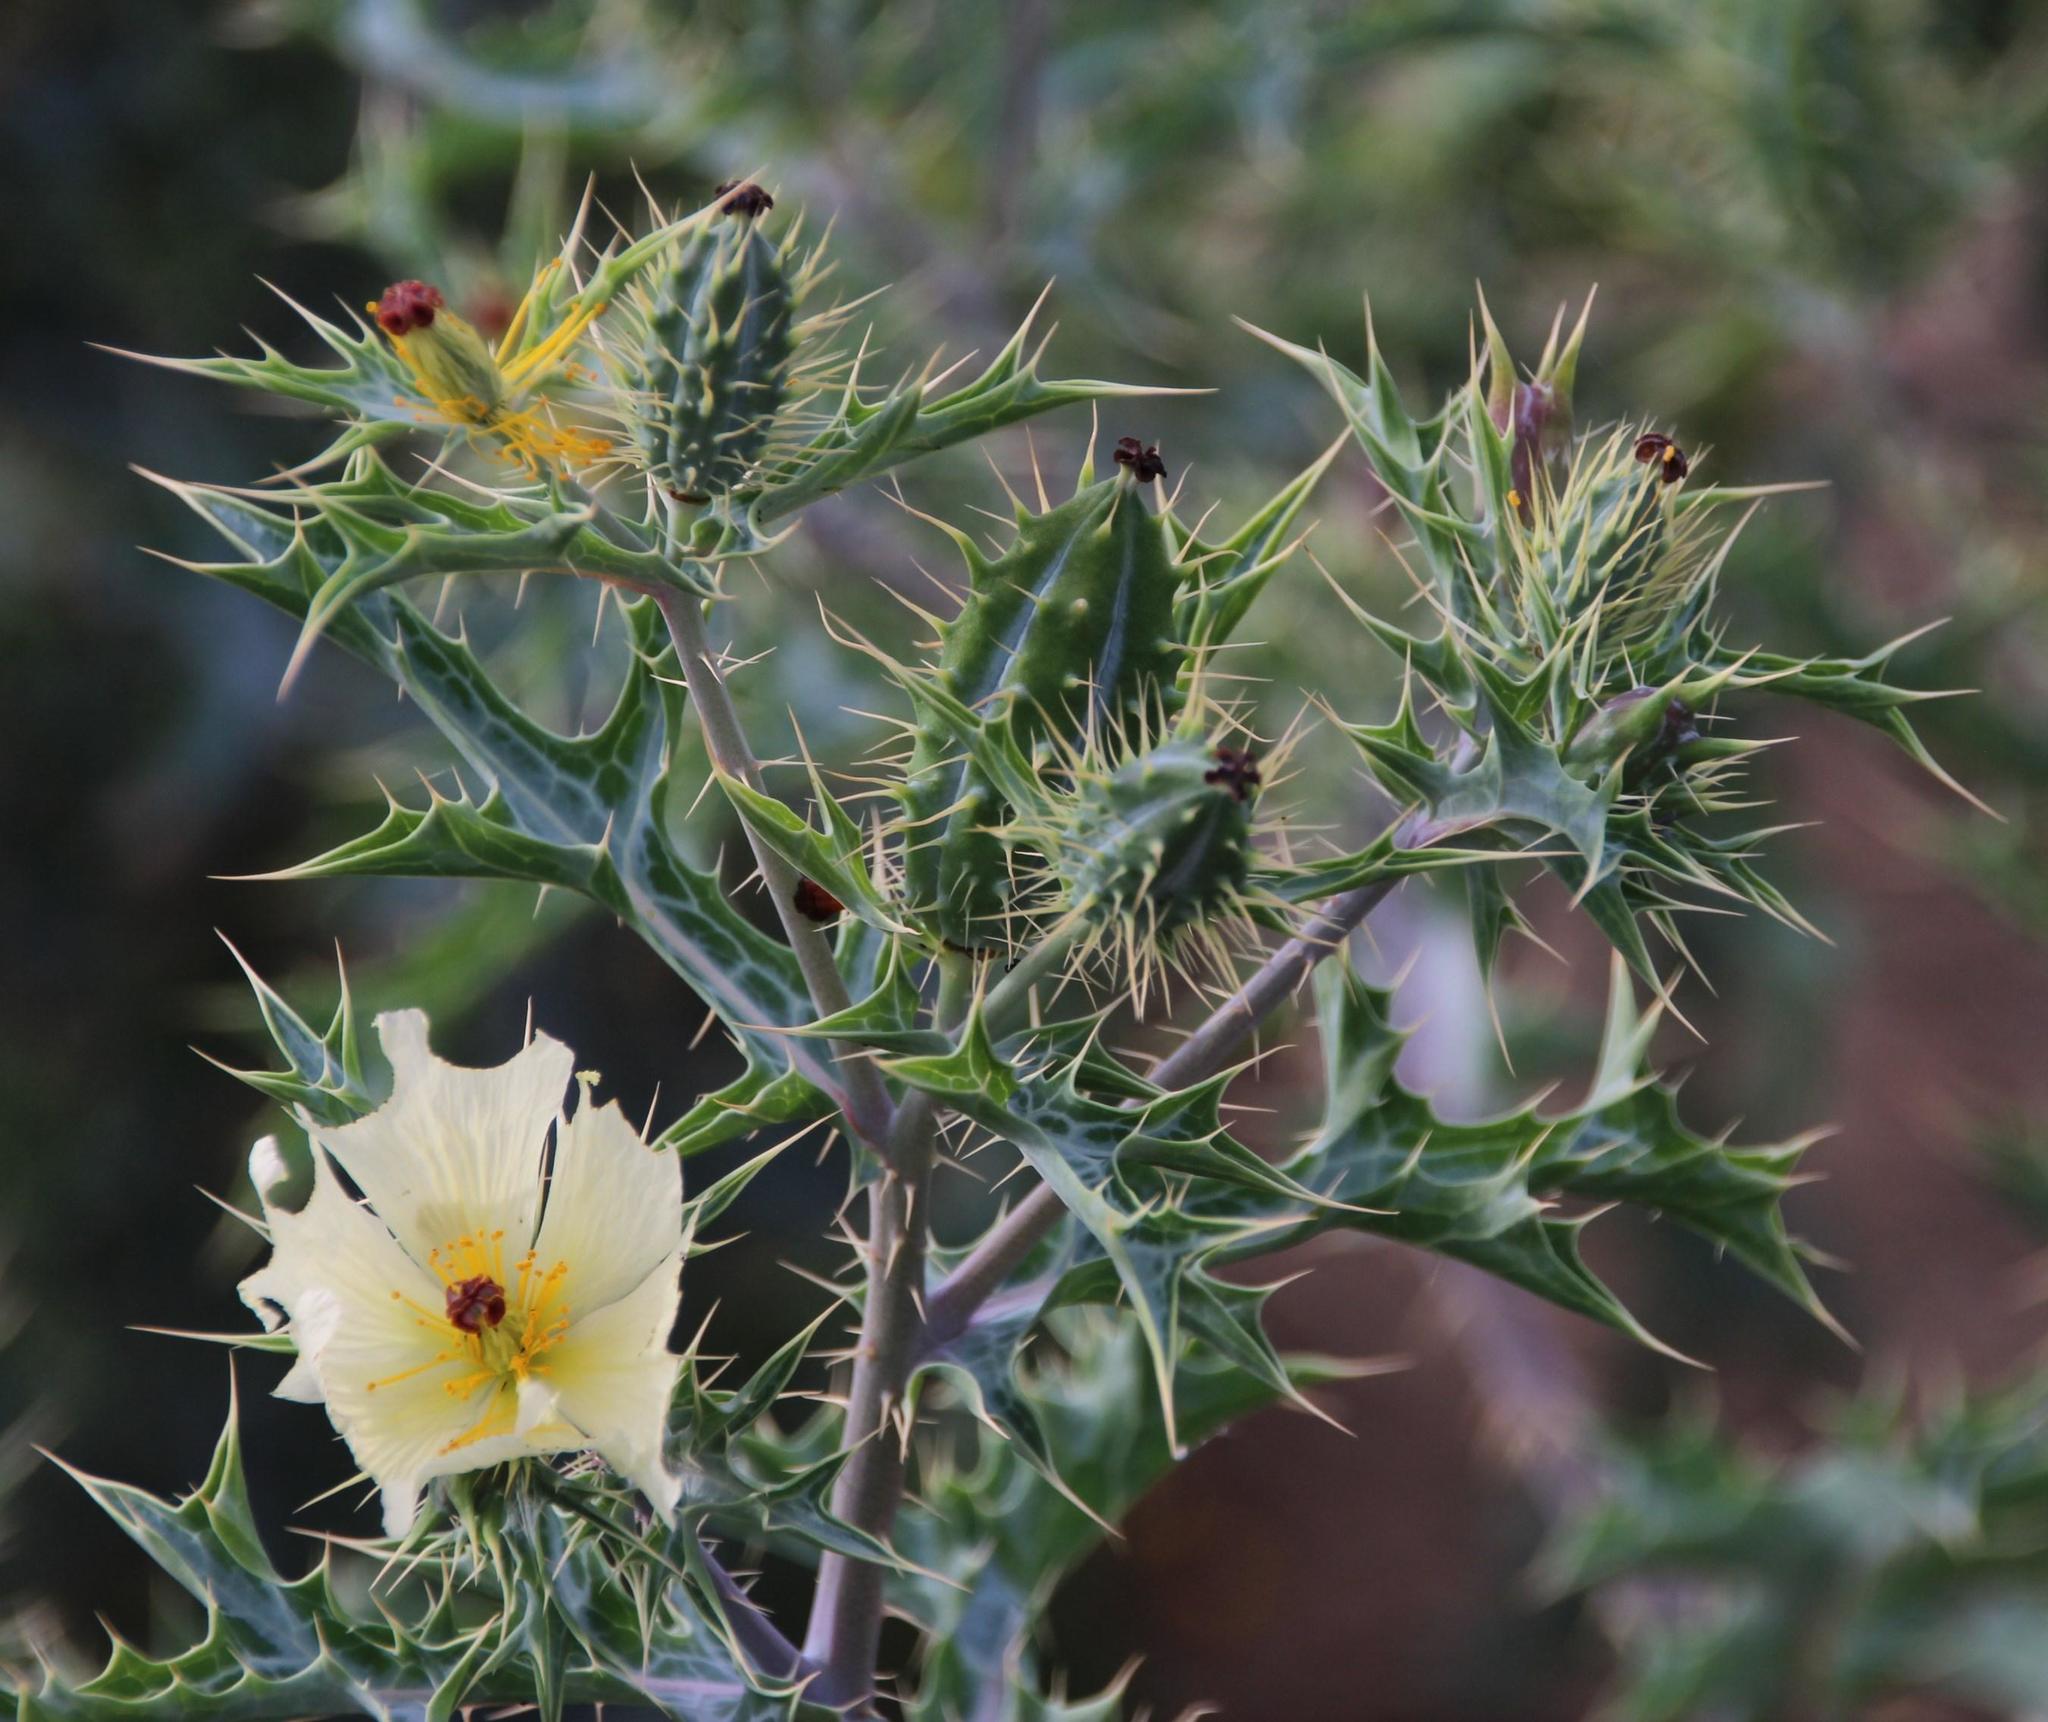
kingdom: Plantae
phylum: Tracheophyta
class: Magnoliopsida
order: Ranunculales
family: Papaveraceae
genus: Argemone
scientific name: Argemone ochroleuca
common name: White-flower mexican-poppy
